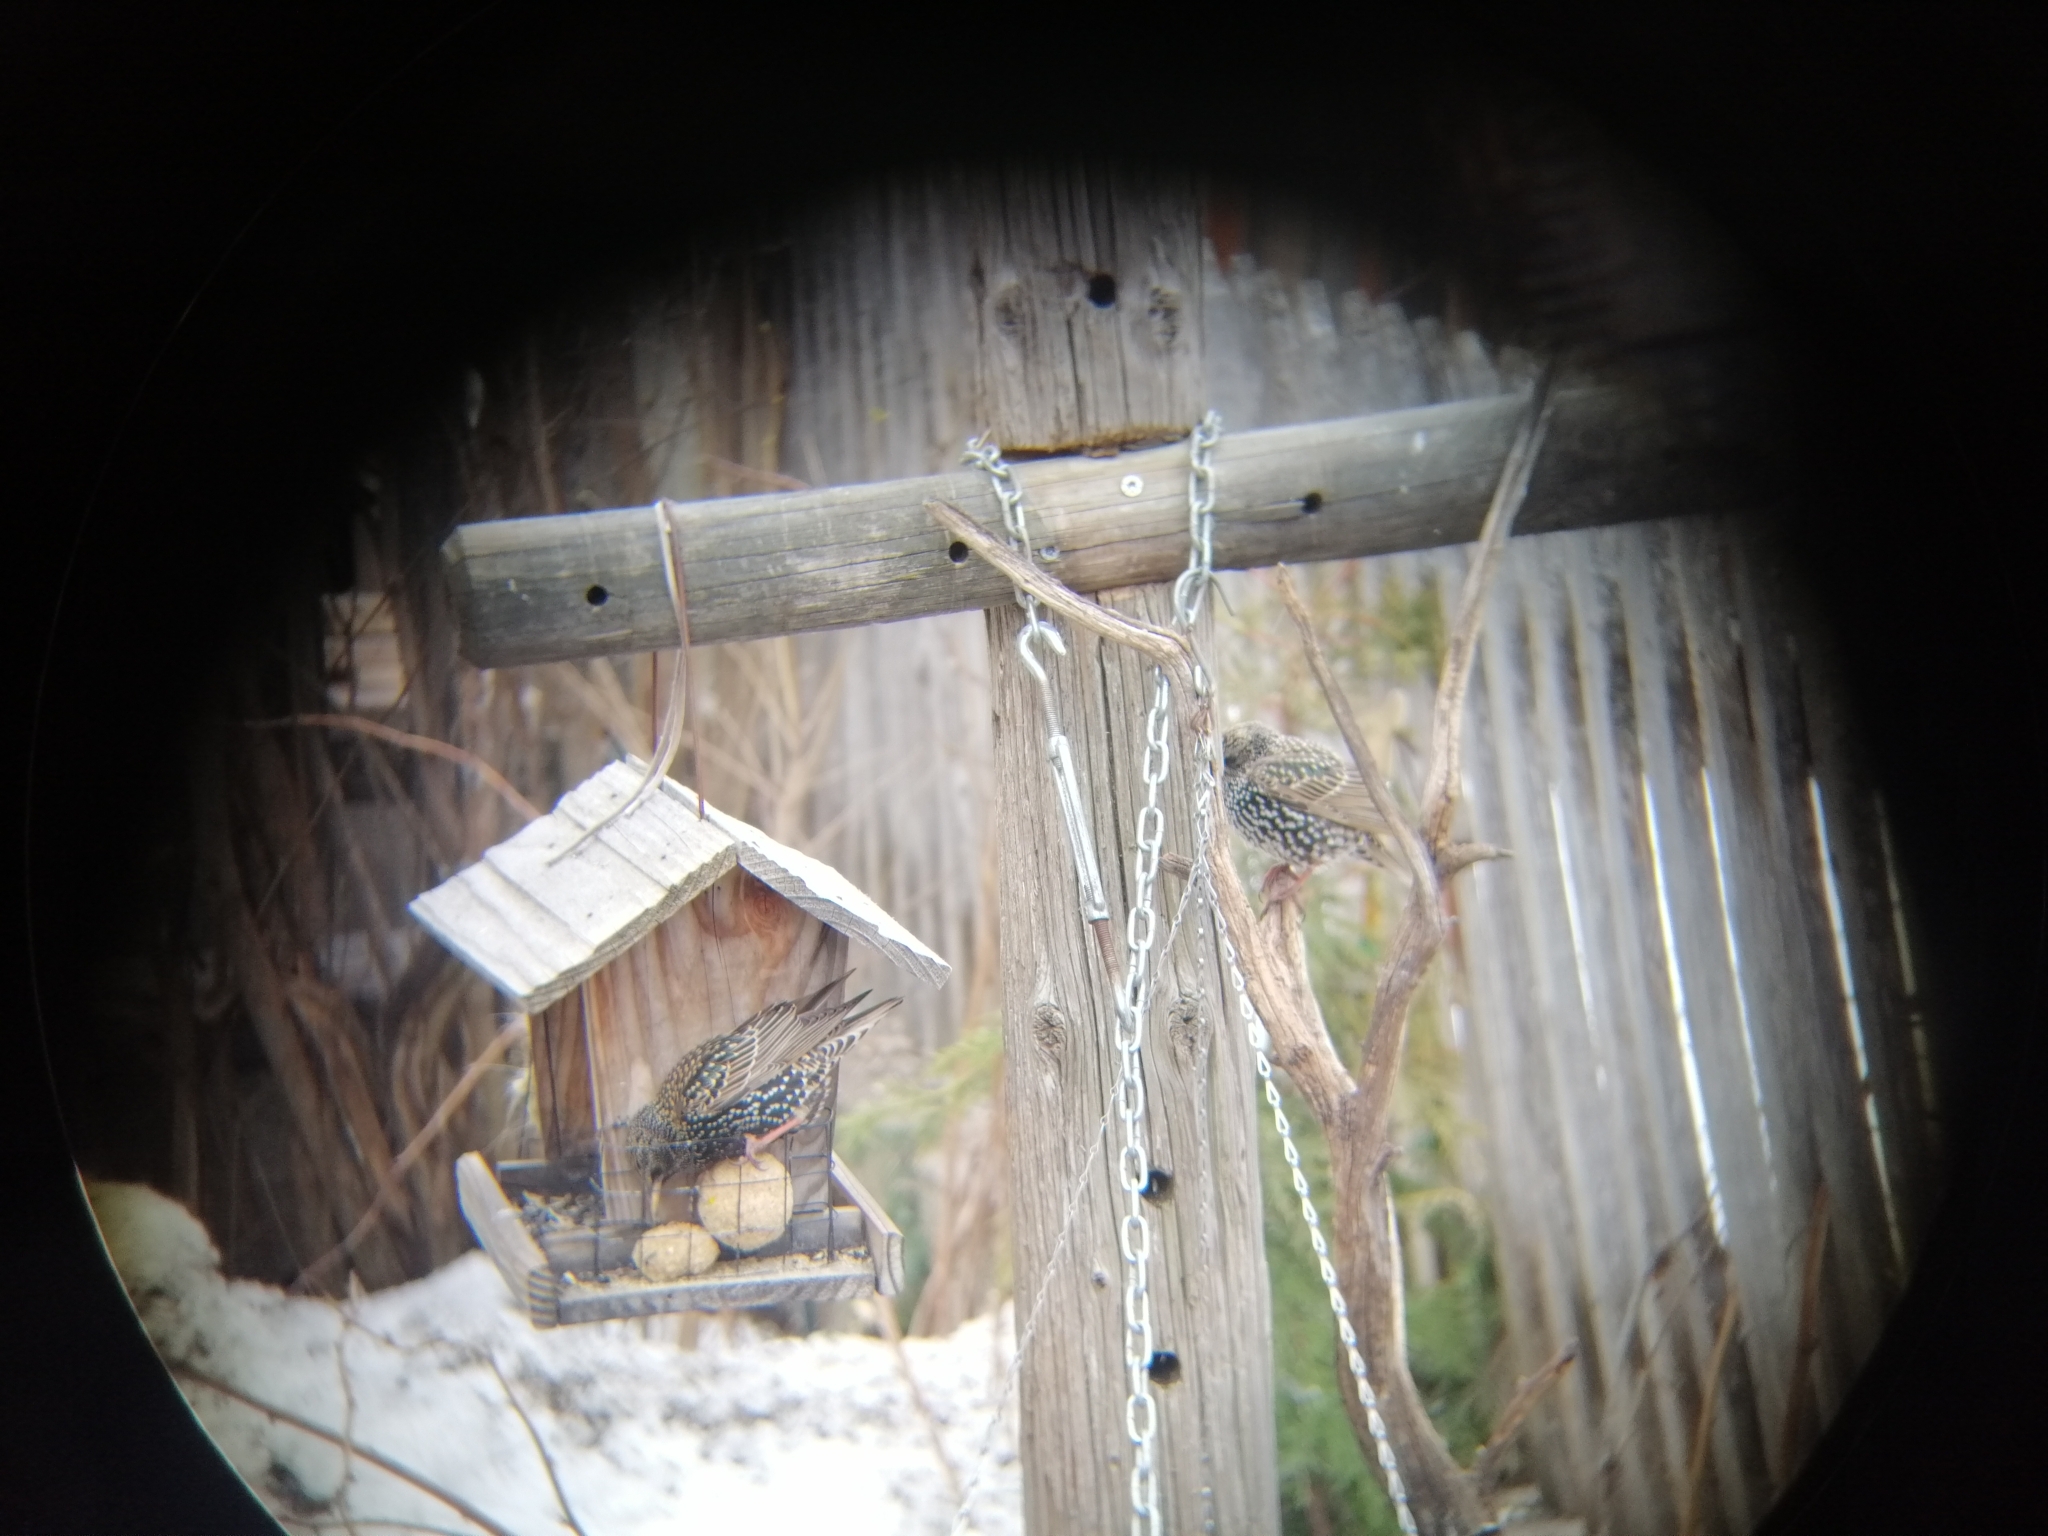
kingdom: Animalia
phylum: Chordata
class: Aves
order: Passeriformes
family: Sturnidae
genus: Sturnus
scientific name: Sturnus vulgaris
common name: Common starling
